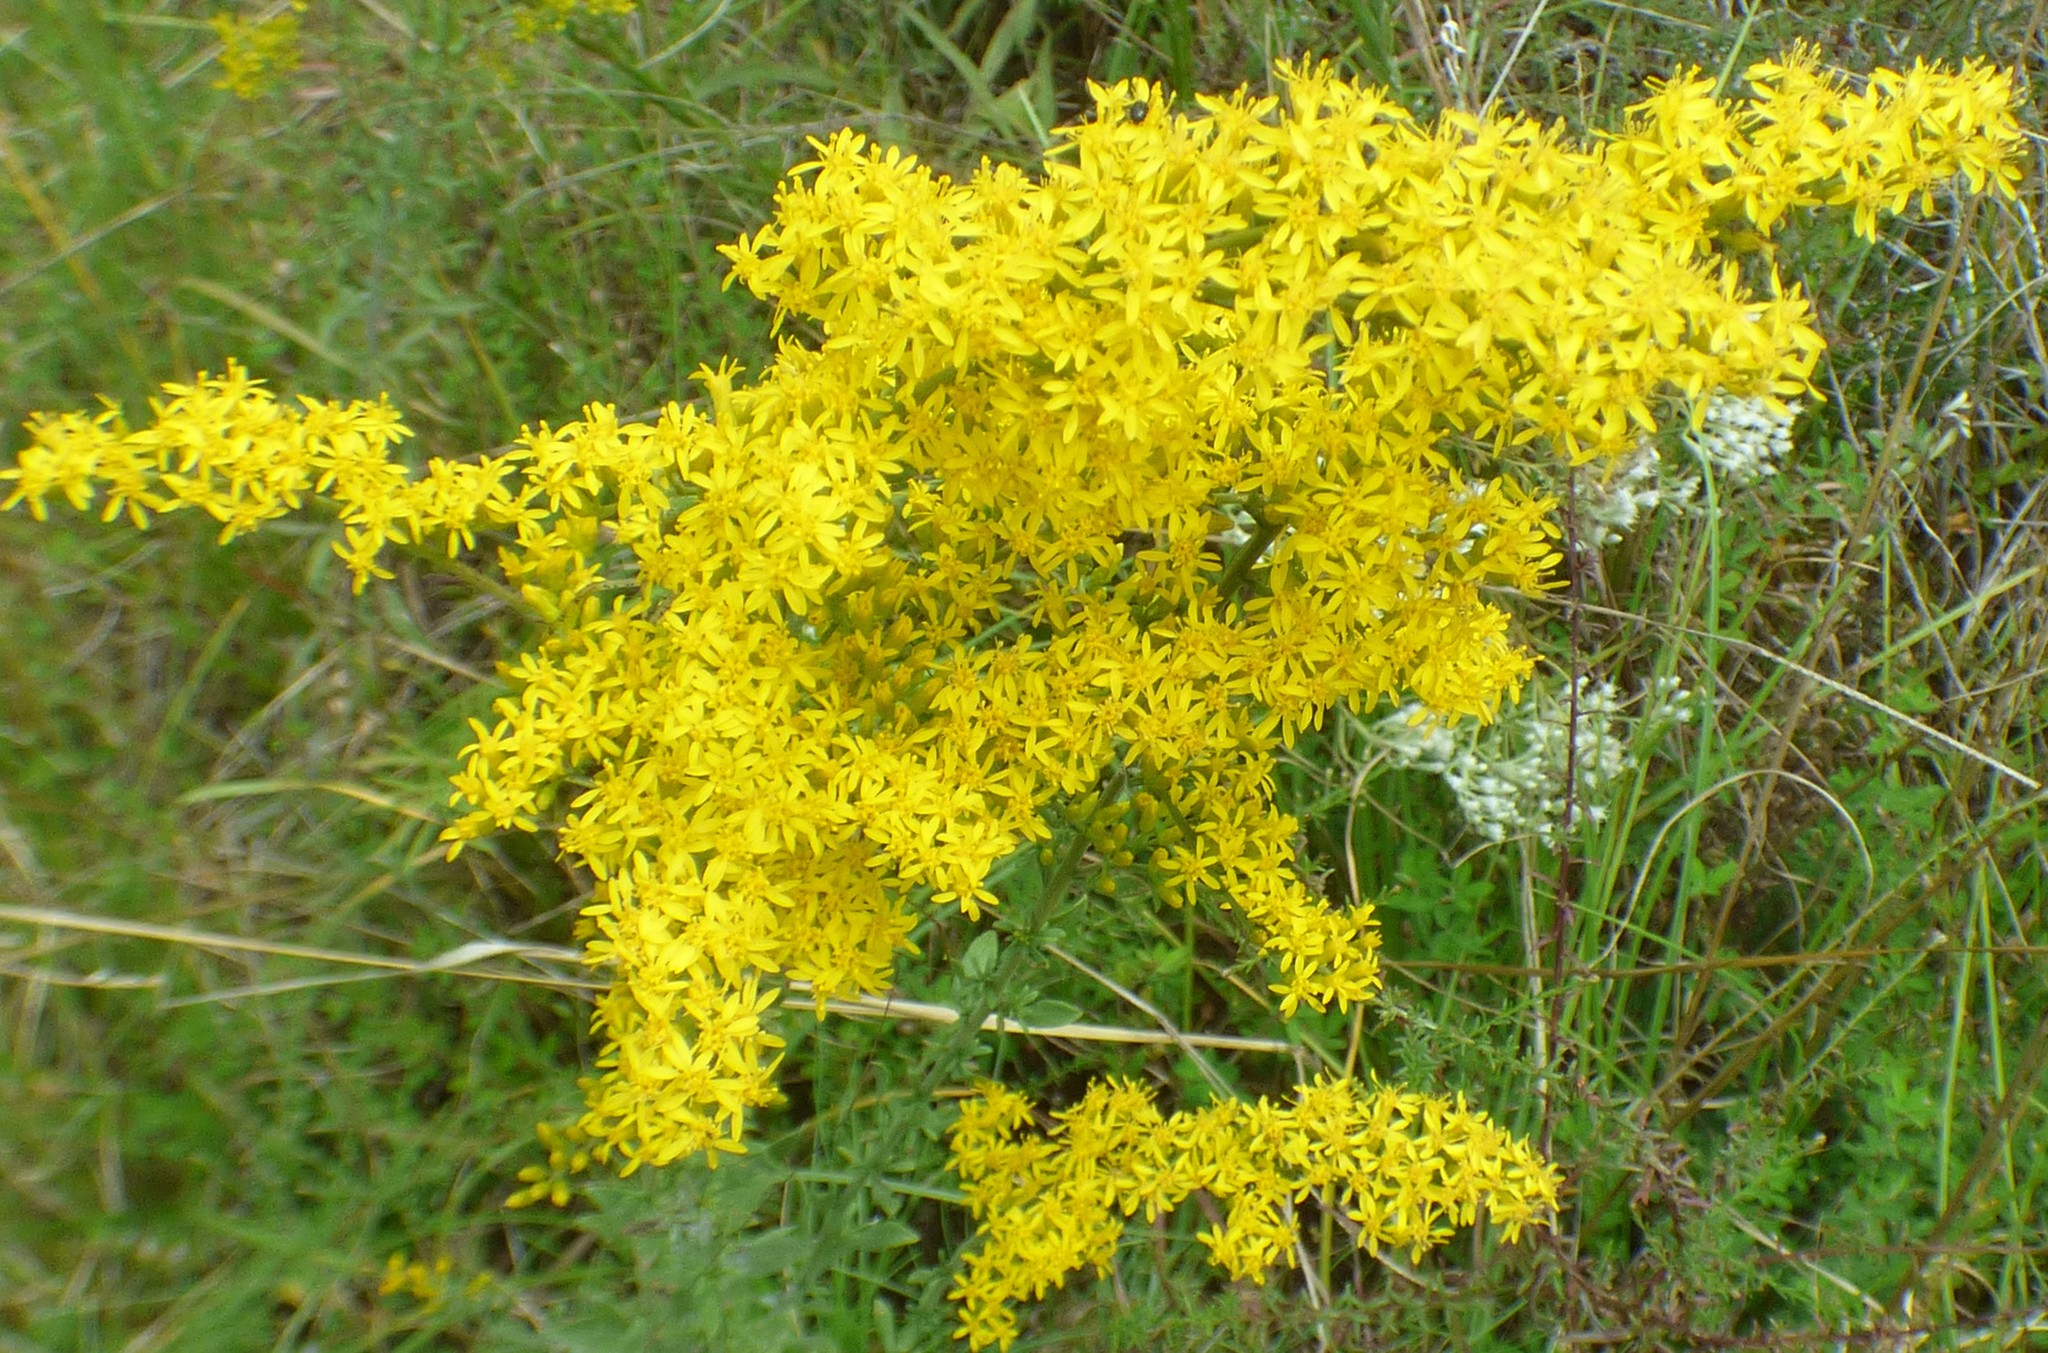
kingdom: Plantae
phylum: Tracheophyta
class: Magnoliopsida
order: Asterales
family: Asteraceae
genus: Solidago
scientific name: Solidago nemoralis
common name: Grey goldenrod
